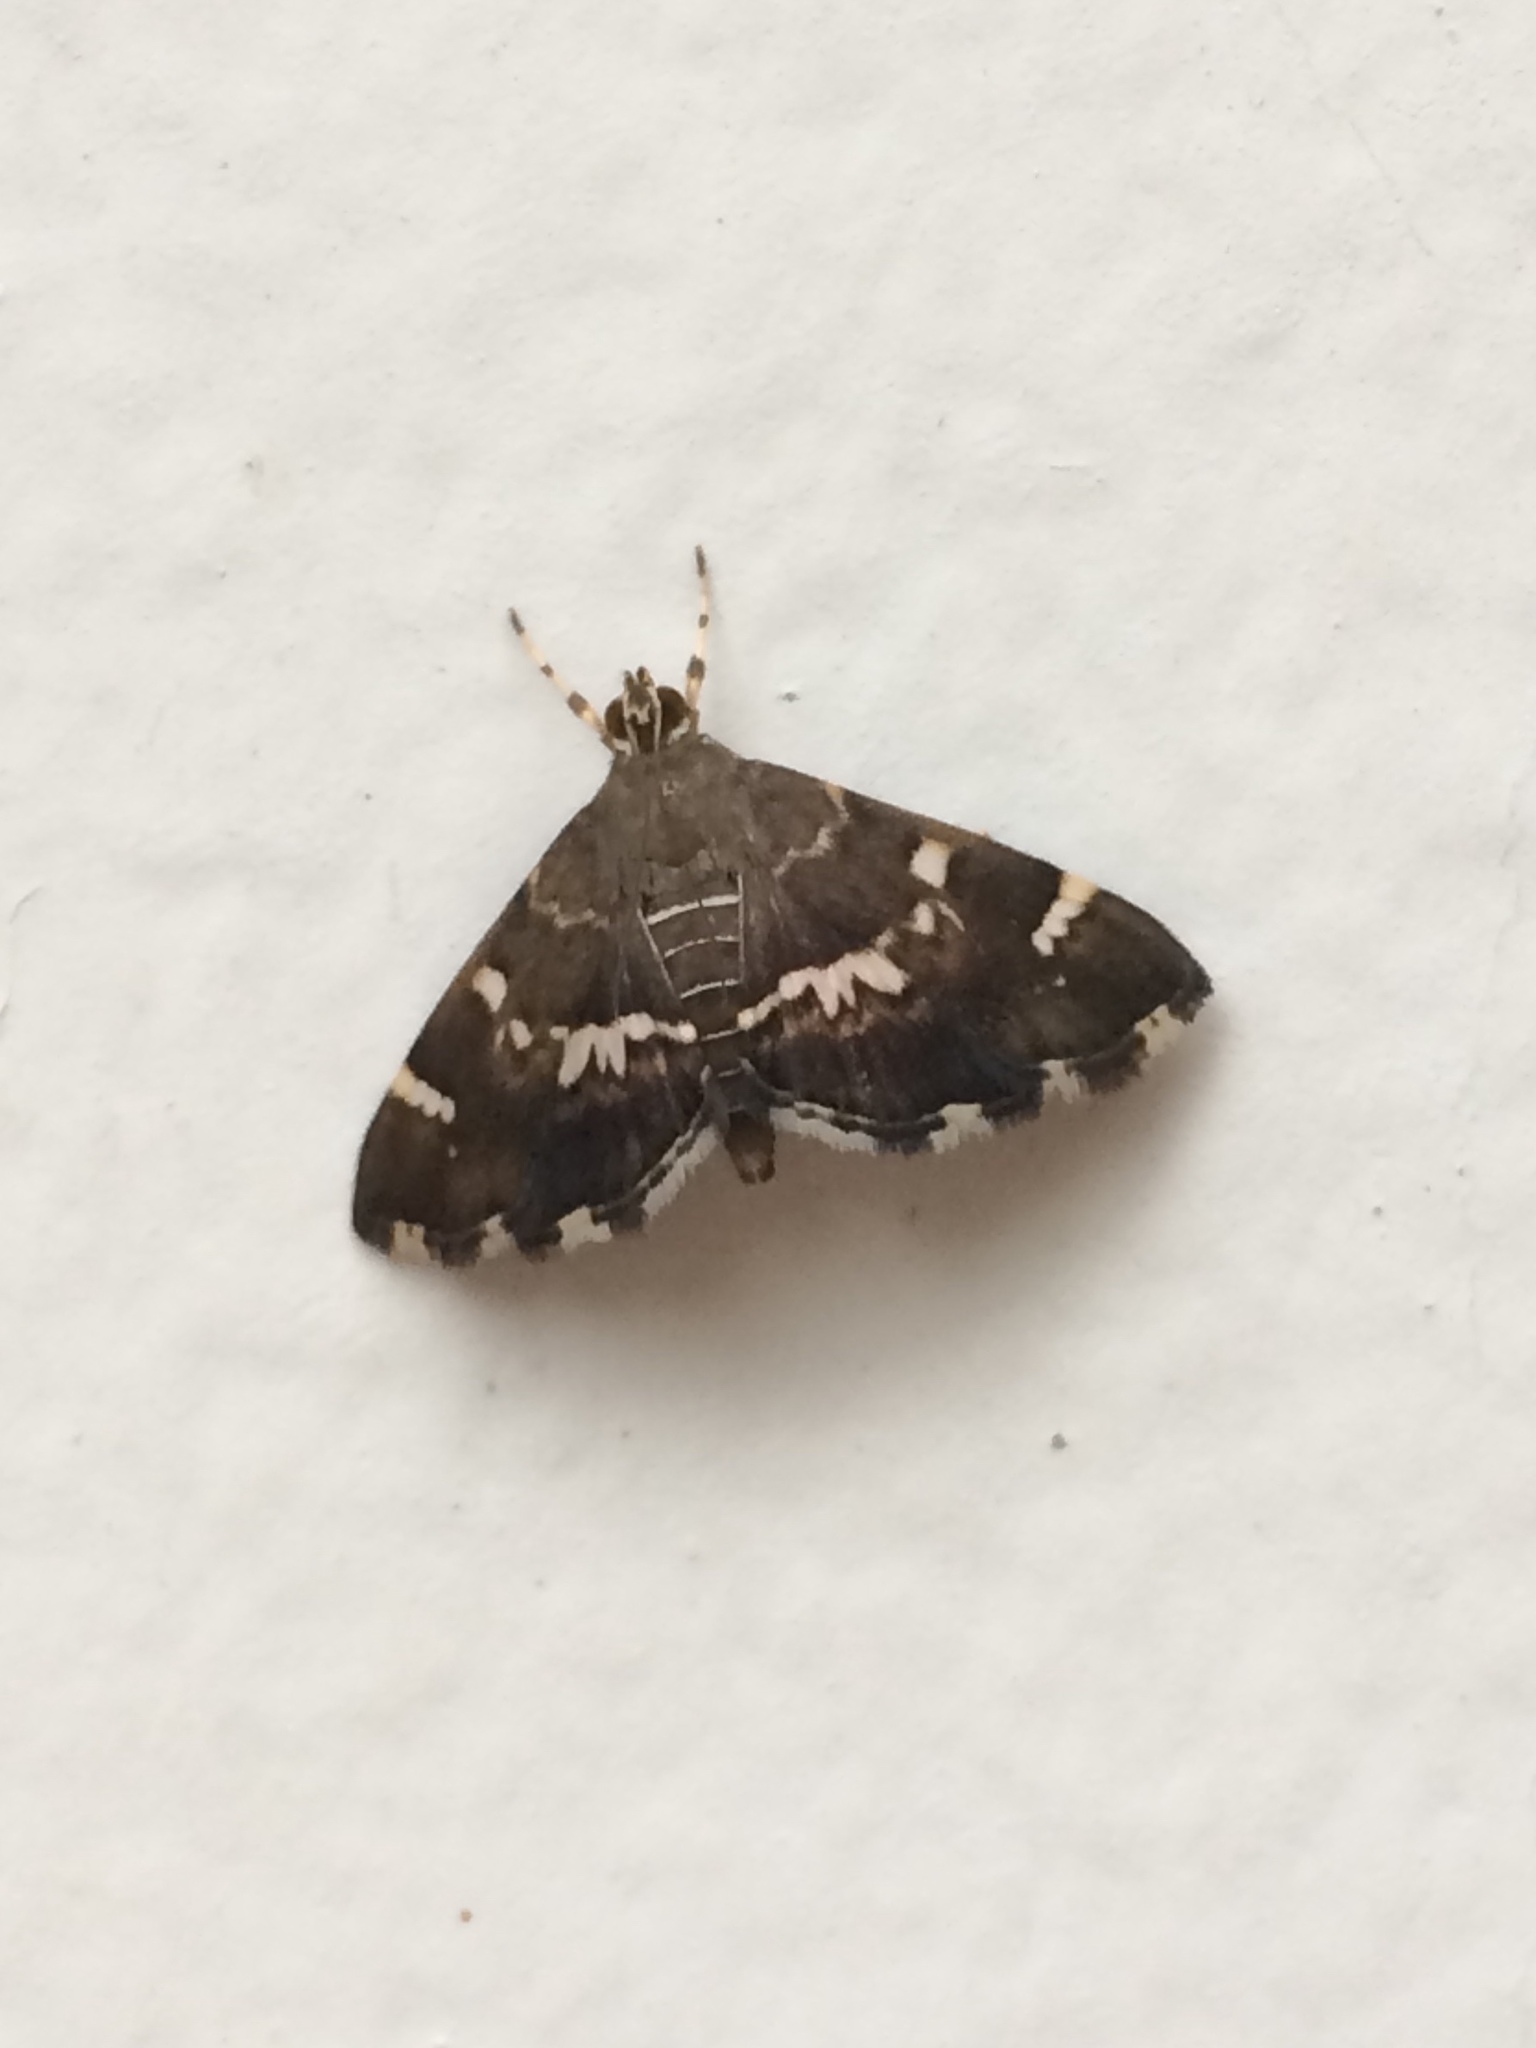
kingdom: Animalia
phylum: Arthropoda
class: Insecta
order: Lepidoptera
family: Crambidae
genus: Hymenia
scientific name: Hymenia perspectalis
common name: Spotted beet webworm
